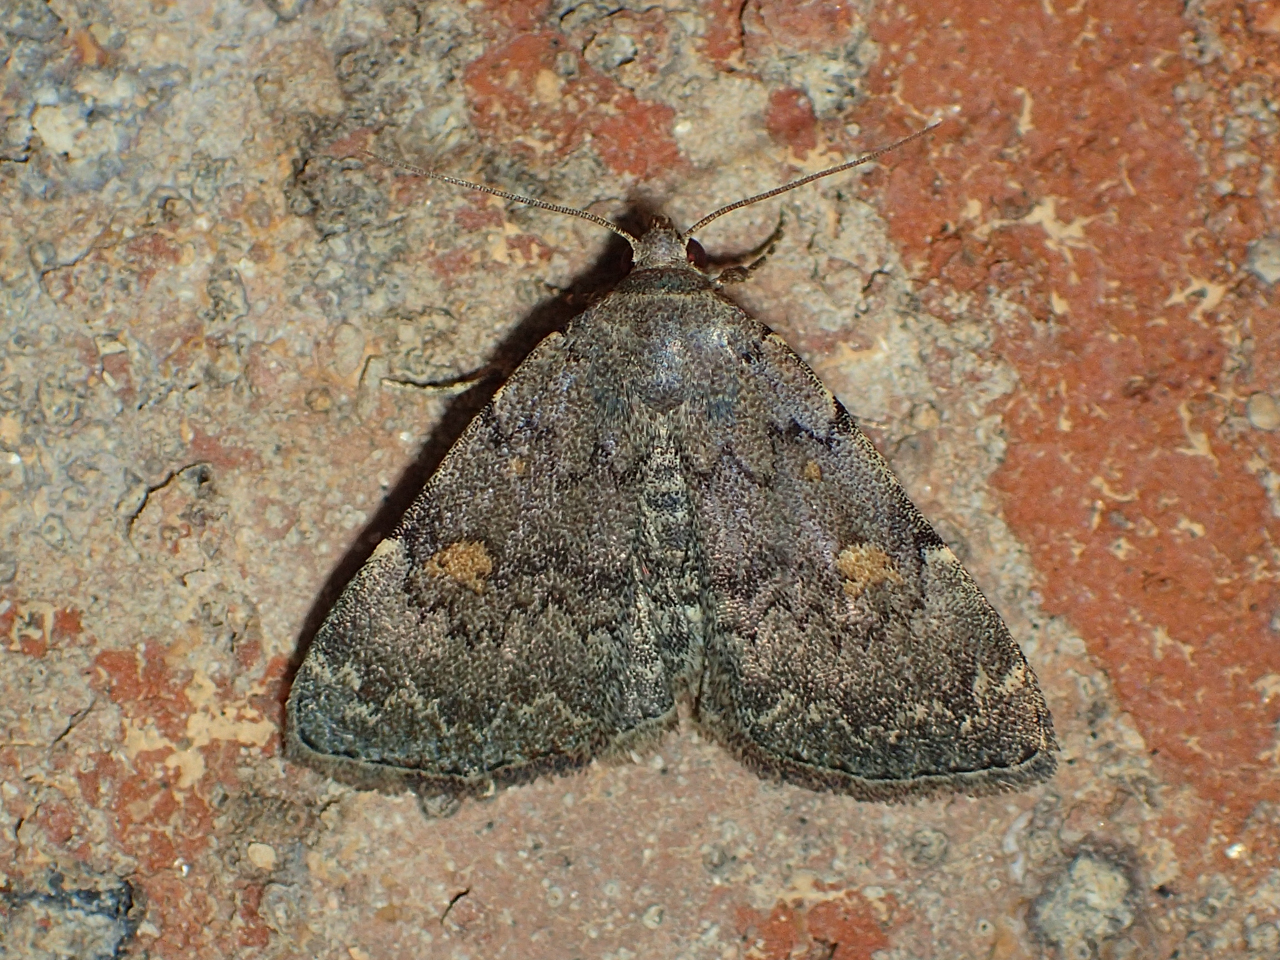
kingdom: Animalia
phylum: Arthropoda
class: Insecta
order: Lepidoptera
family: Erebidae
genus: Idia
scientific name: Idia aemula
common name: Common idia moth
